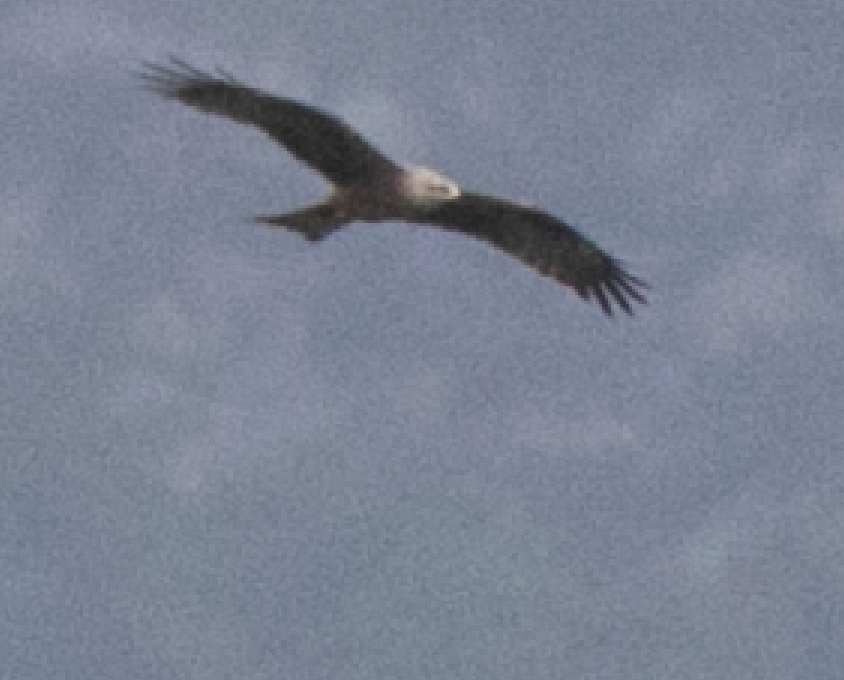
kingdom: Animalia
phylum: Chordata
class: Aves
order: Accipitriformes
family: Accipitridae
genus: Milvus
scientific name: Milvus migrans
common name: Black kite
